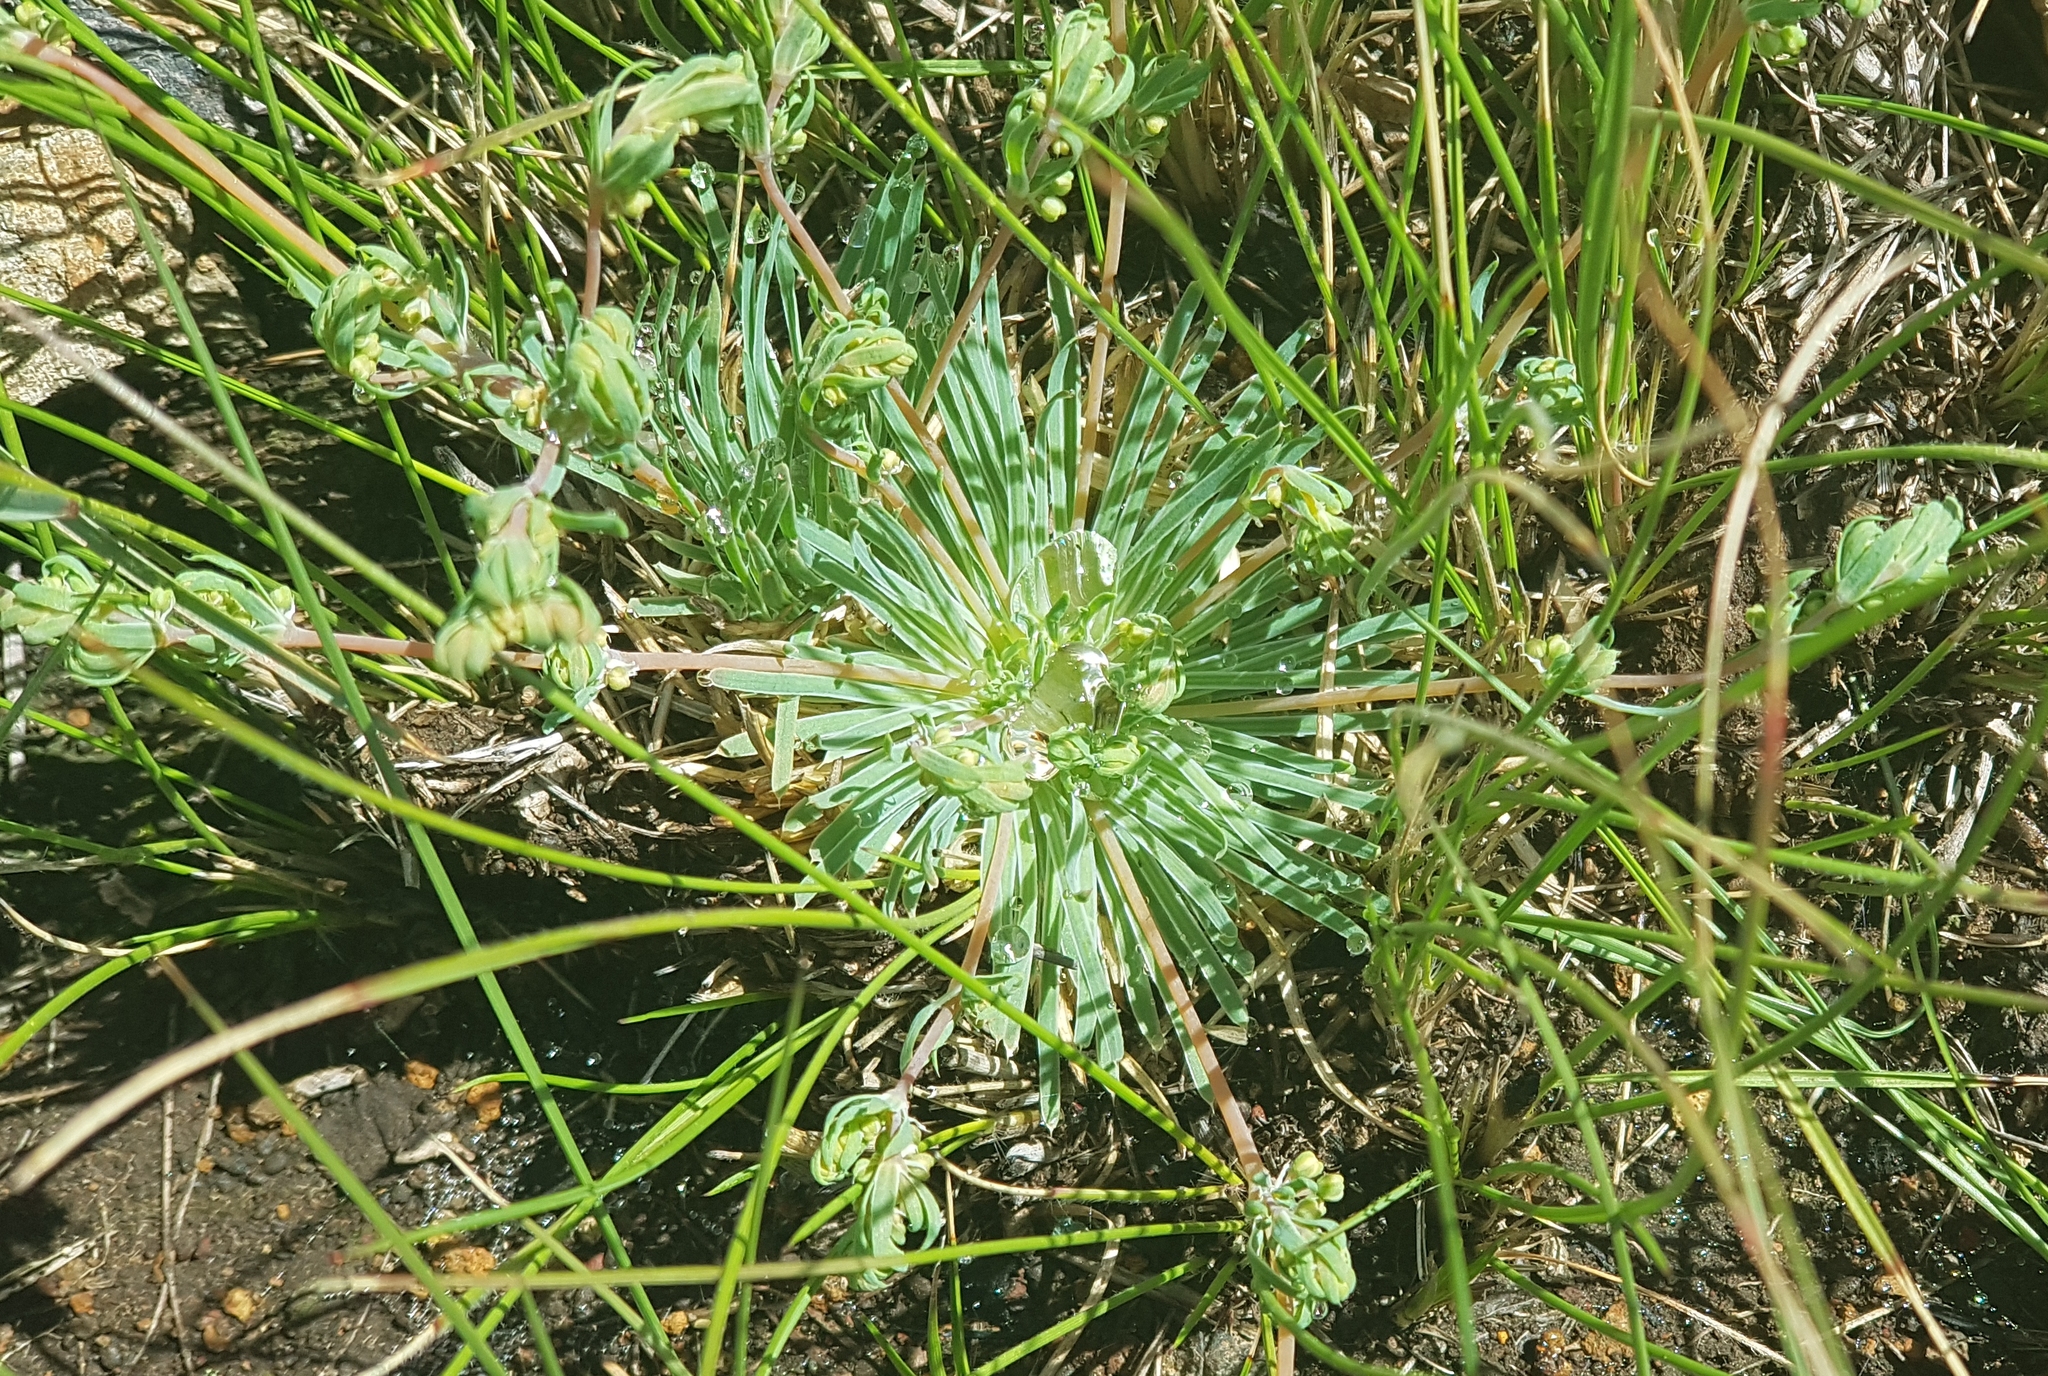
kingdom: Plantae
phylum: Tracheophyta
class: Magnoliopsida
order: Caryophyllales
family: Molluginaceae
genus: Psammotropha
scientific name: Psammotropha mucronata
